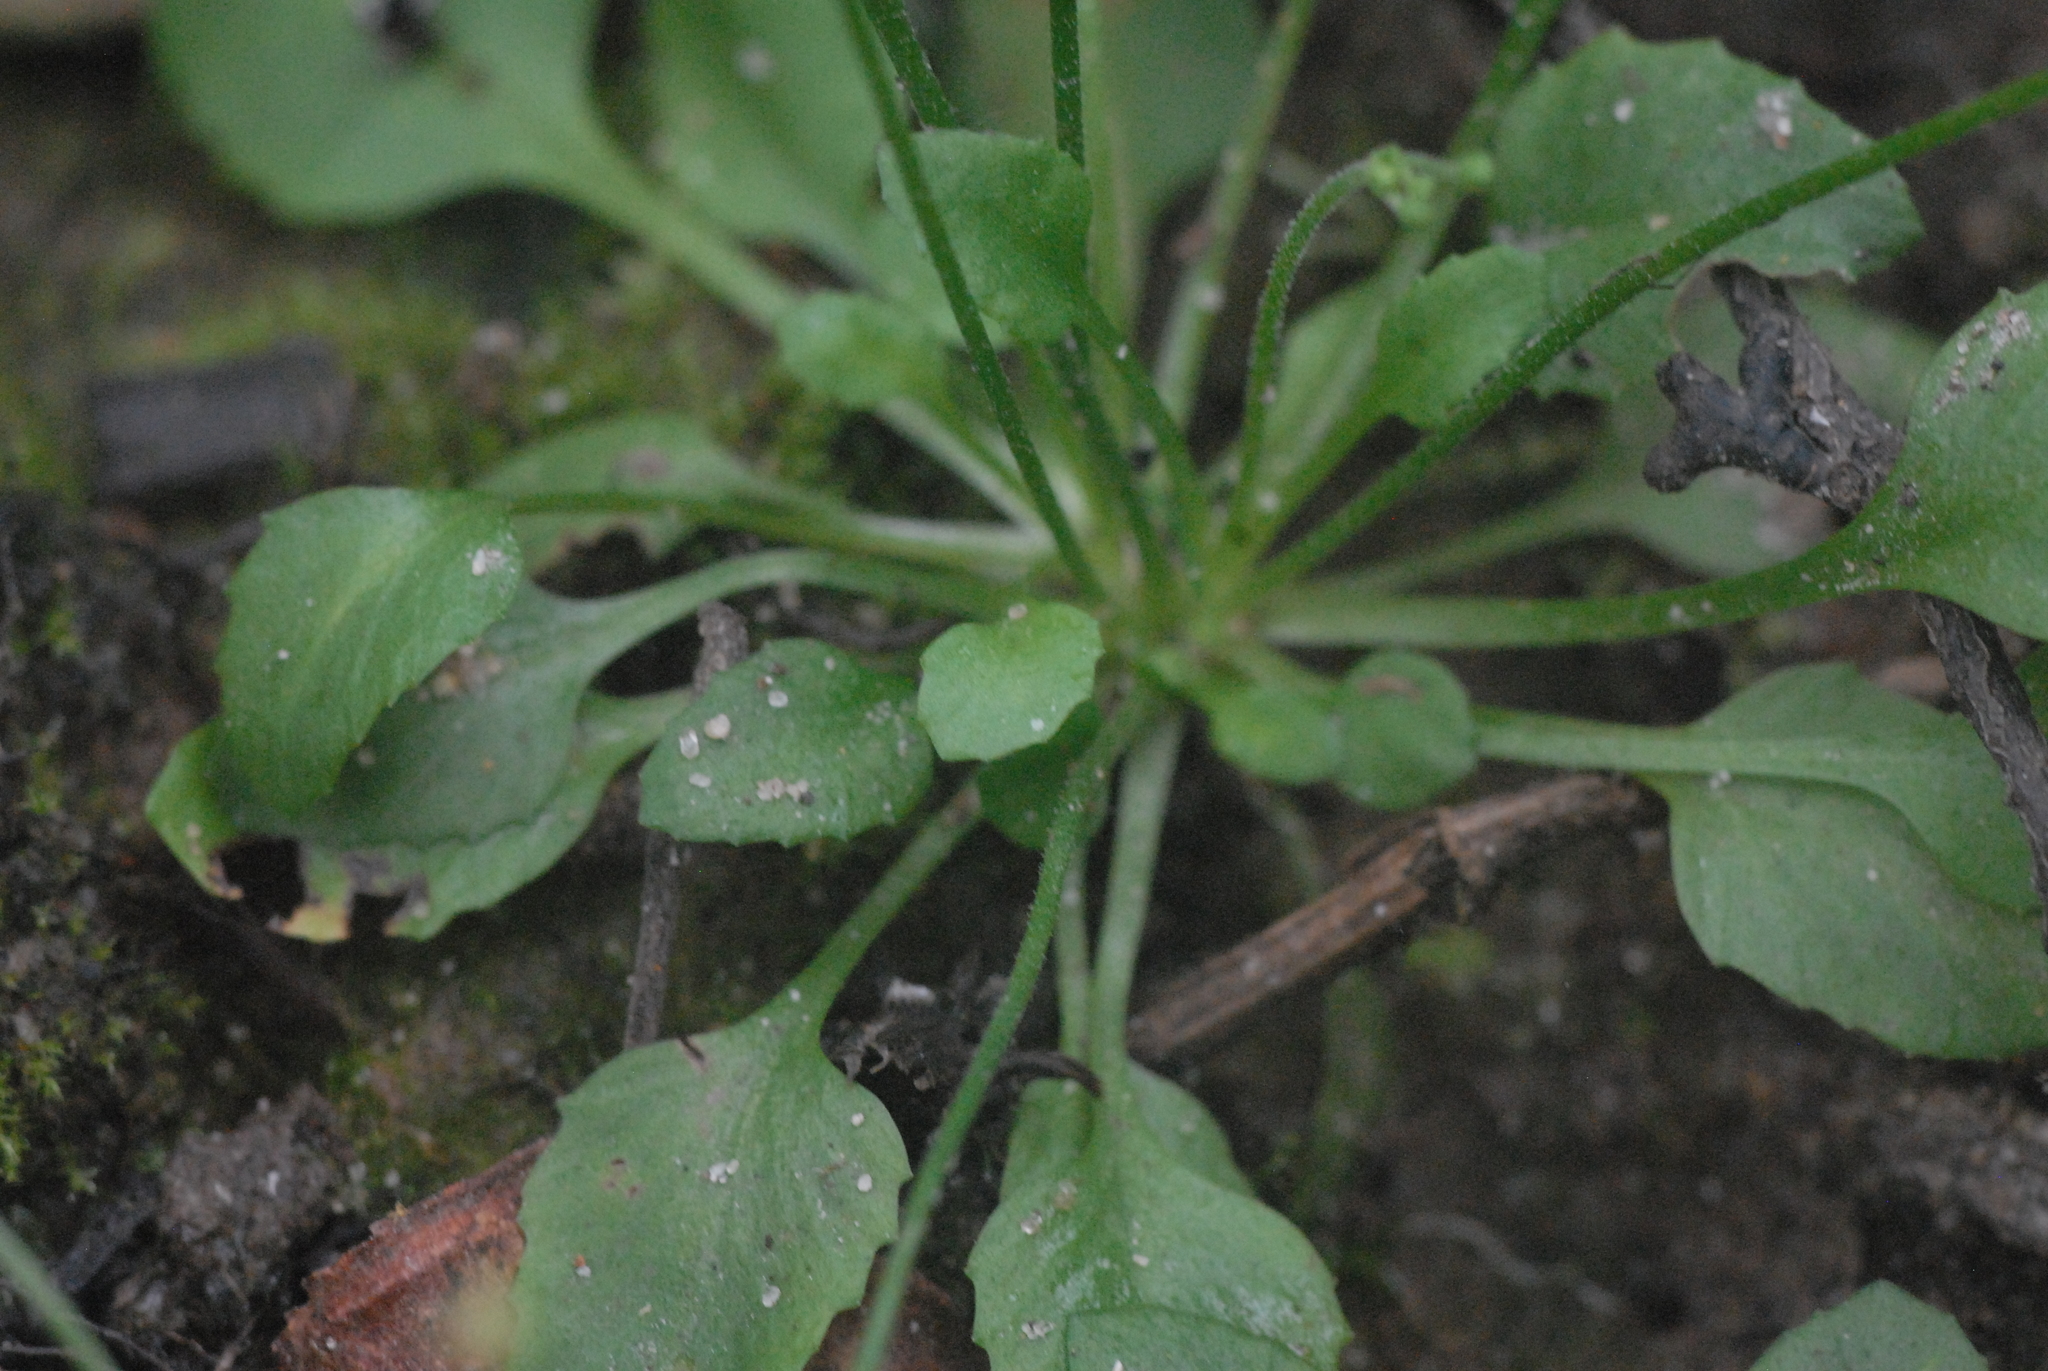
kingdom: Plantae
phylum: Tracheophyta
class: Magnoliopsida
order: Ericales
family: Primulaceae
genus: Androsace
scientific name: Androsace filiformis
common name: Filiform rock jasmine
